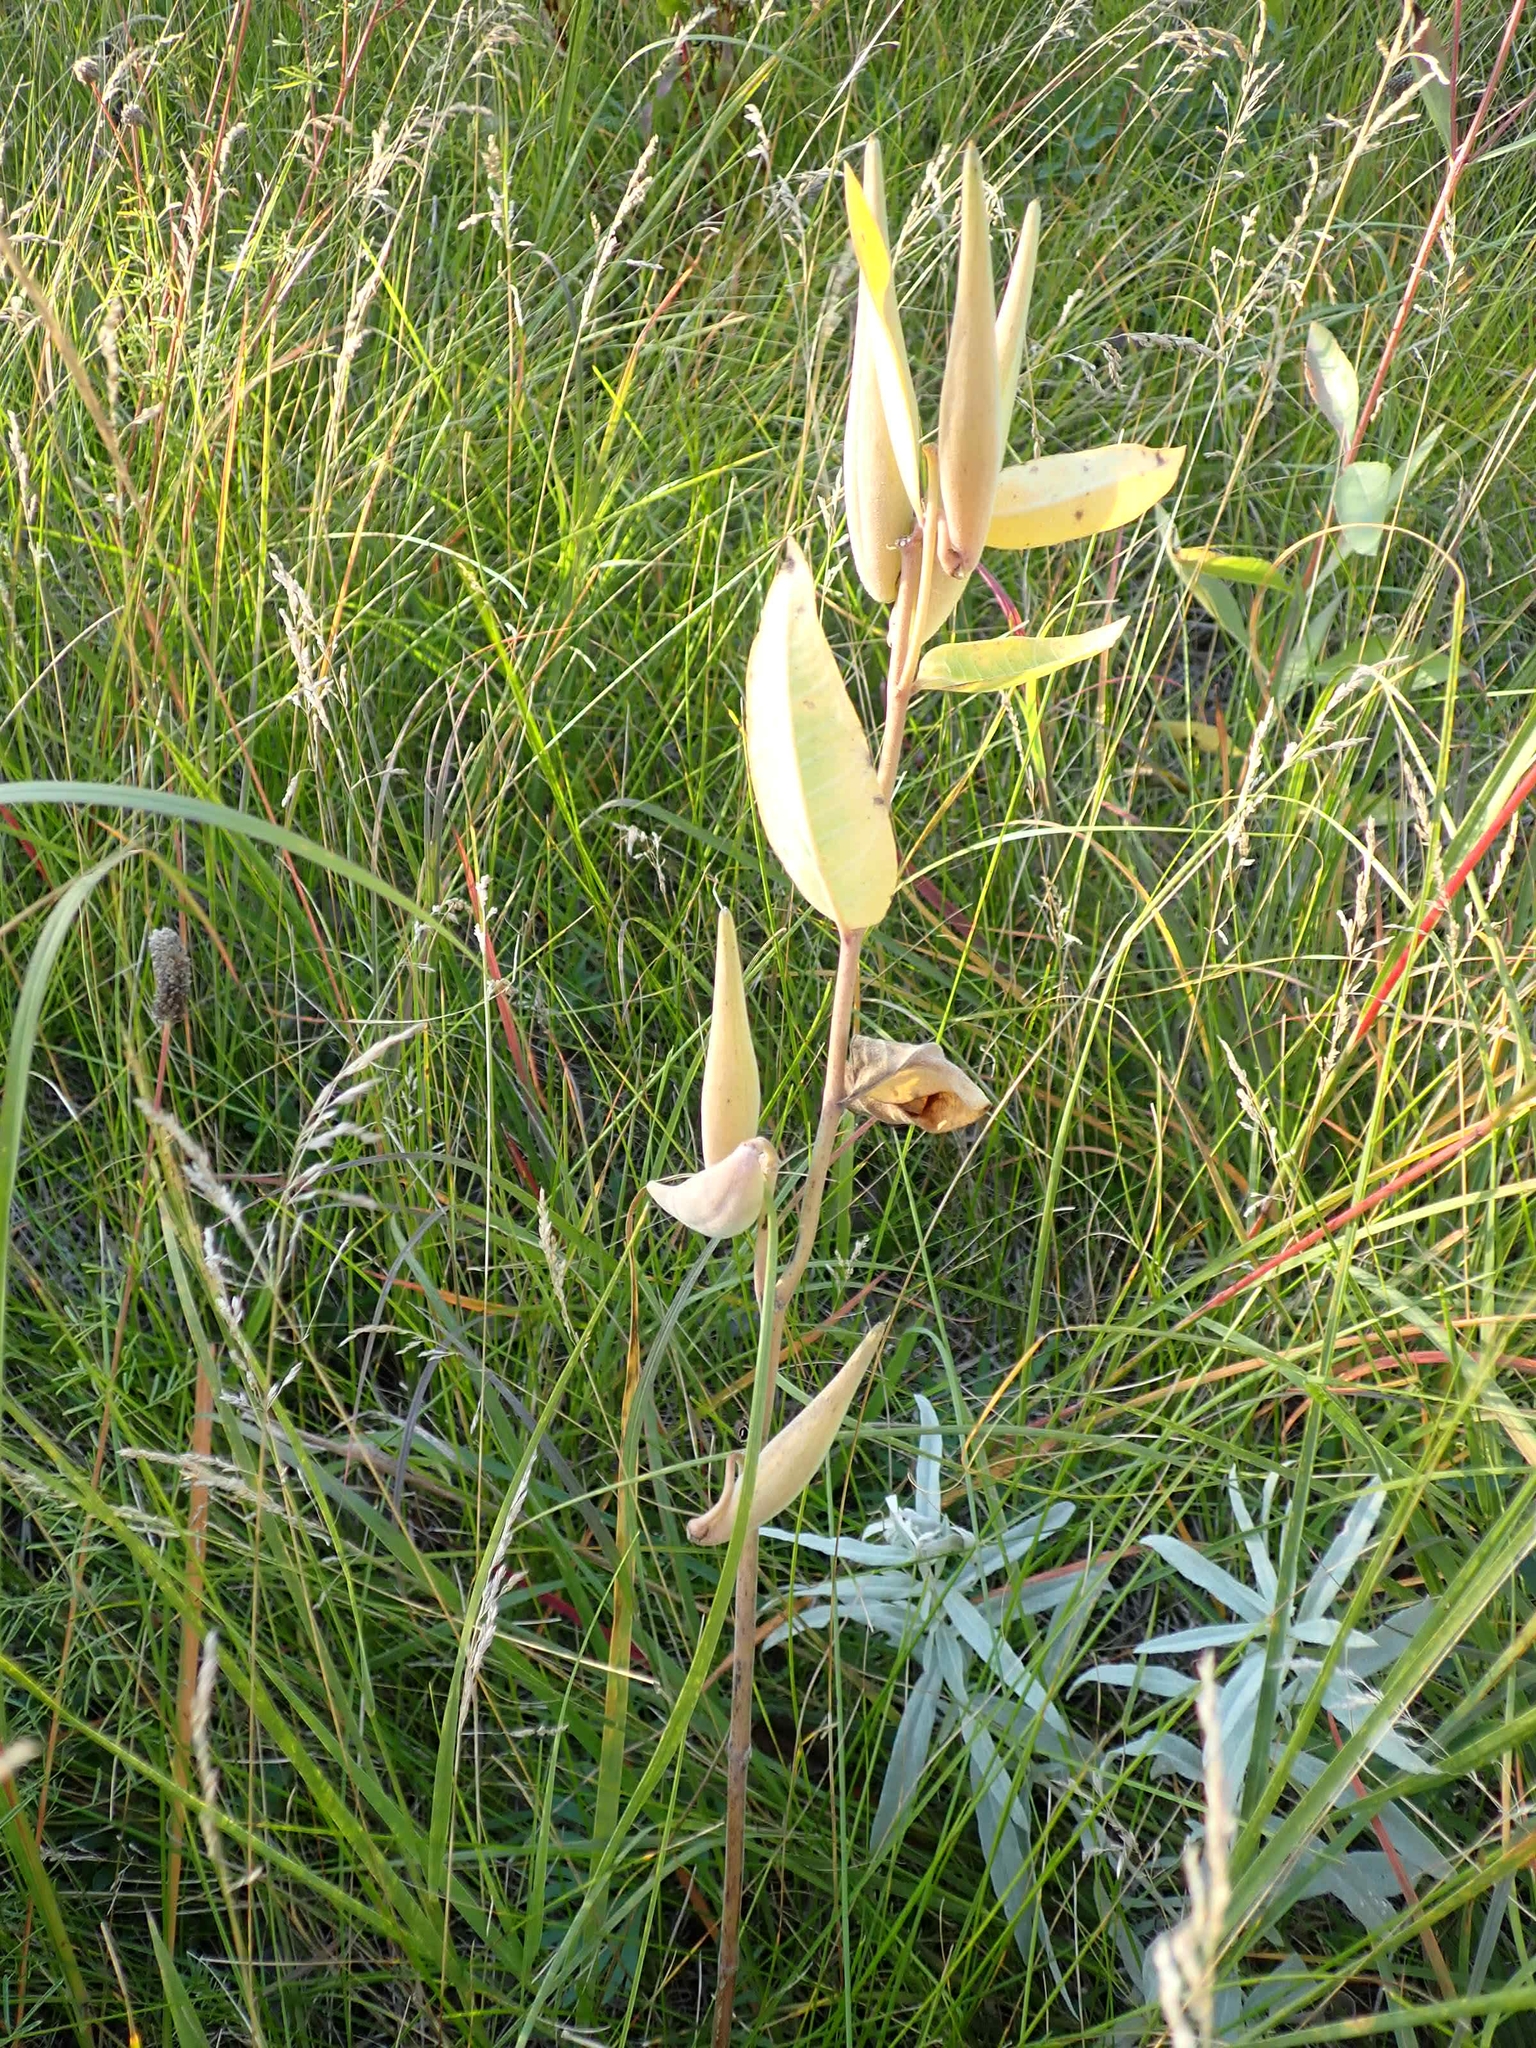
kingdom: Plantae
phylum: Tracheophyta
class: Magnoliopsida
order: Gentianales
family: Apocynaceae
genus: Asclepias
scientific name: Asclepias ovalifolia
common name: Dwarf milkweed
